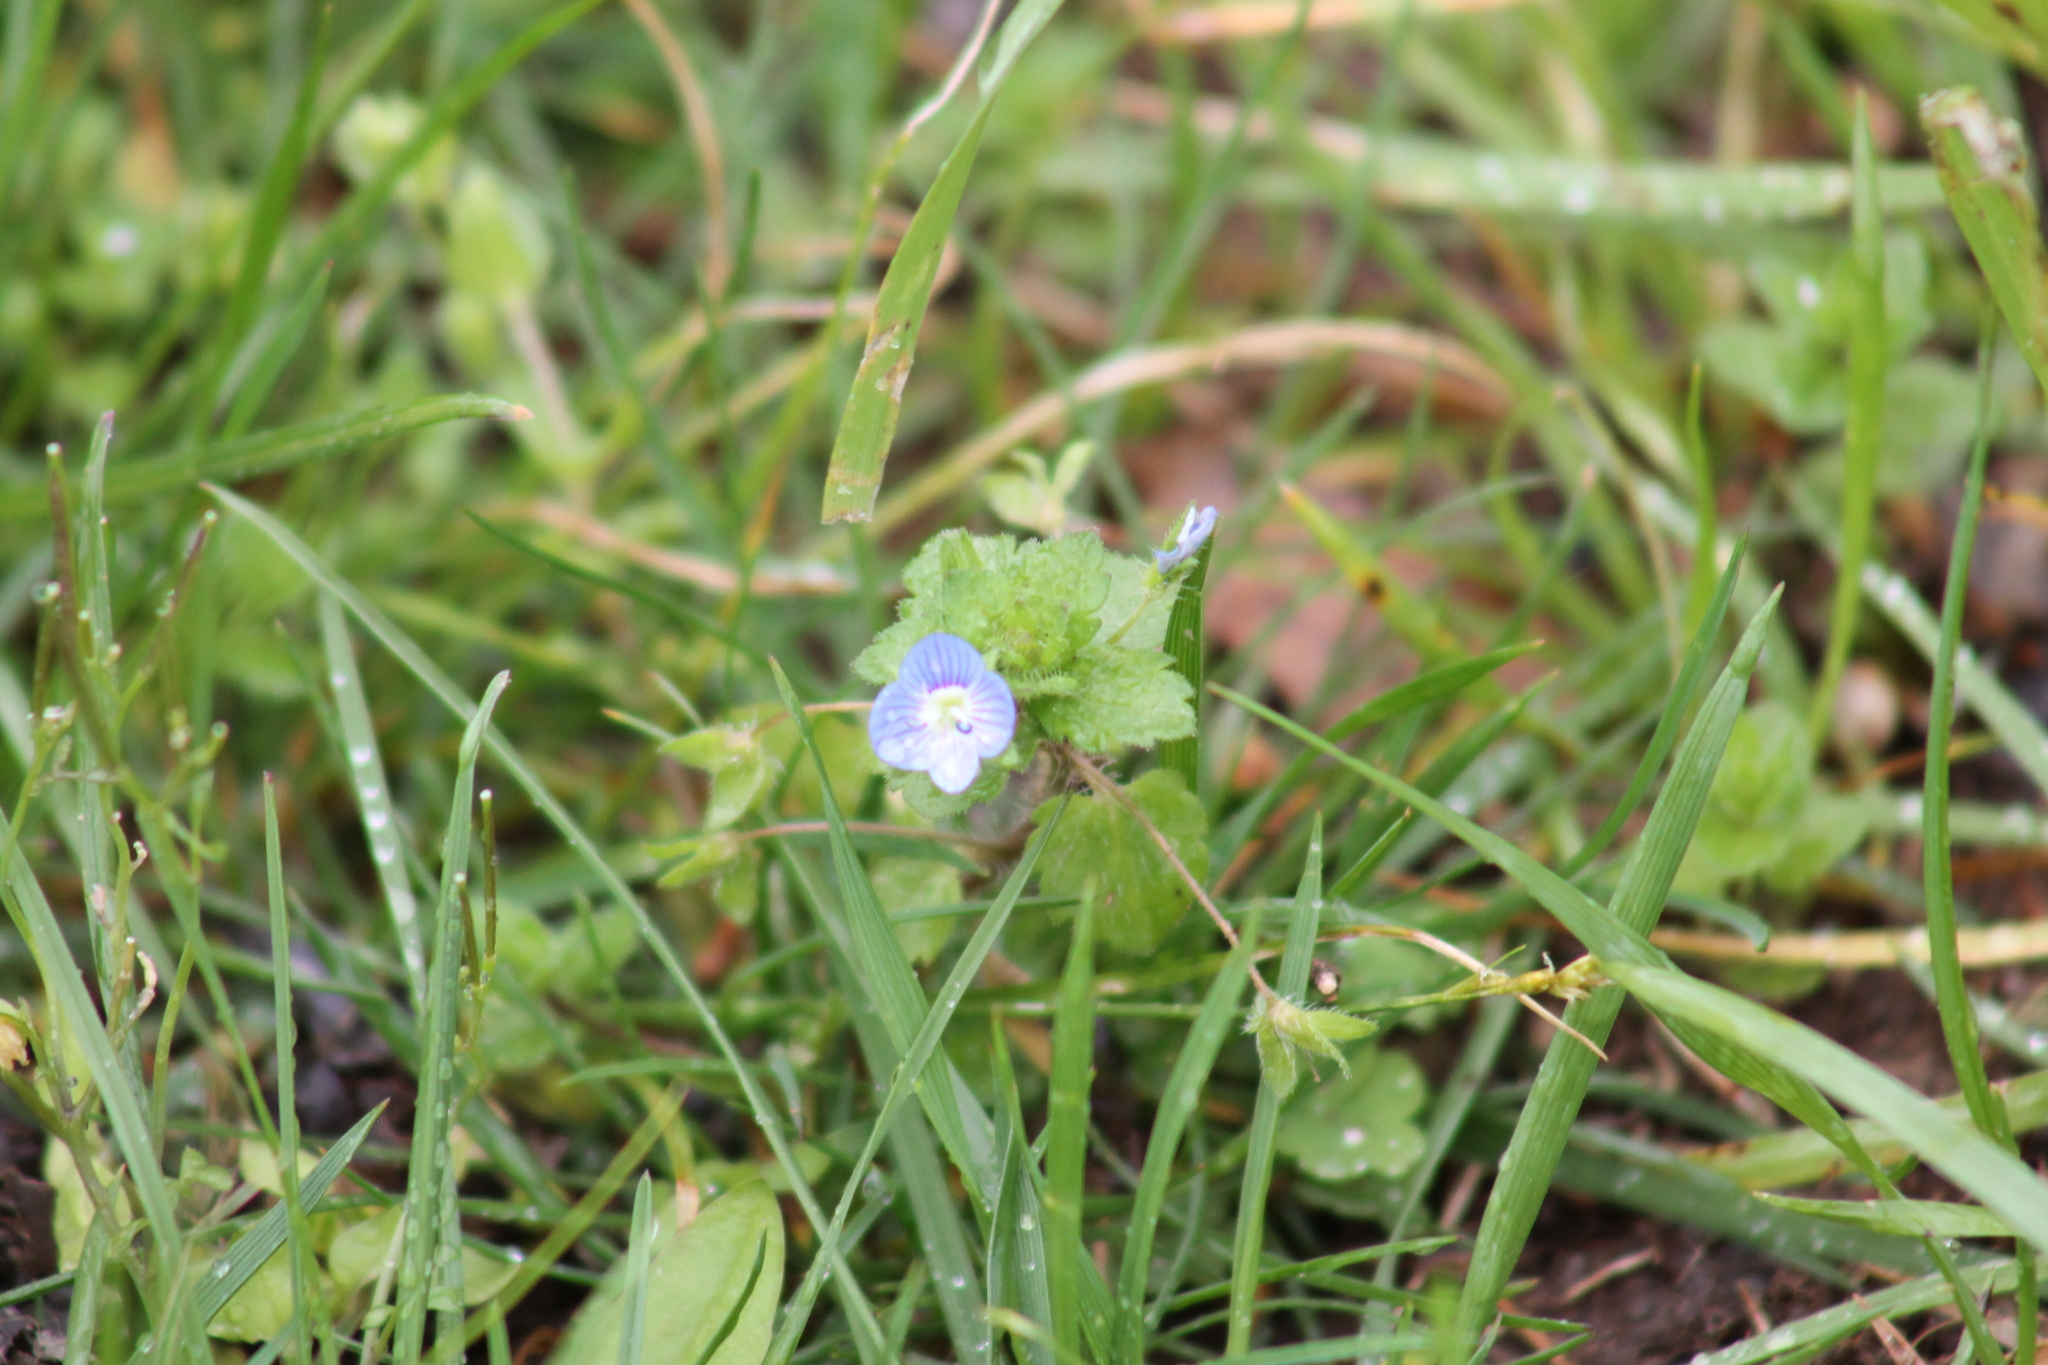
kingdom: Plantae
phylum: Tracheophyta
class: Magnoliopsida
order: Lamiales
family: Plantaginaceae
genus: Veronica
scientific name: Veronica persica
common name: Common field-speedwell
